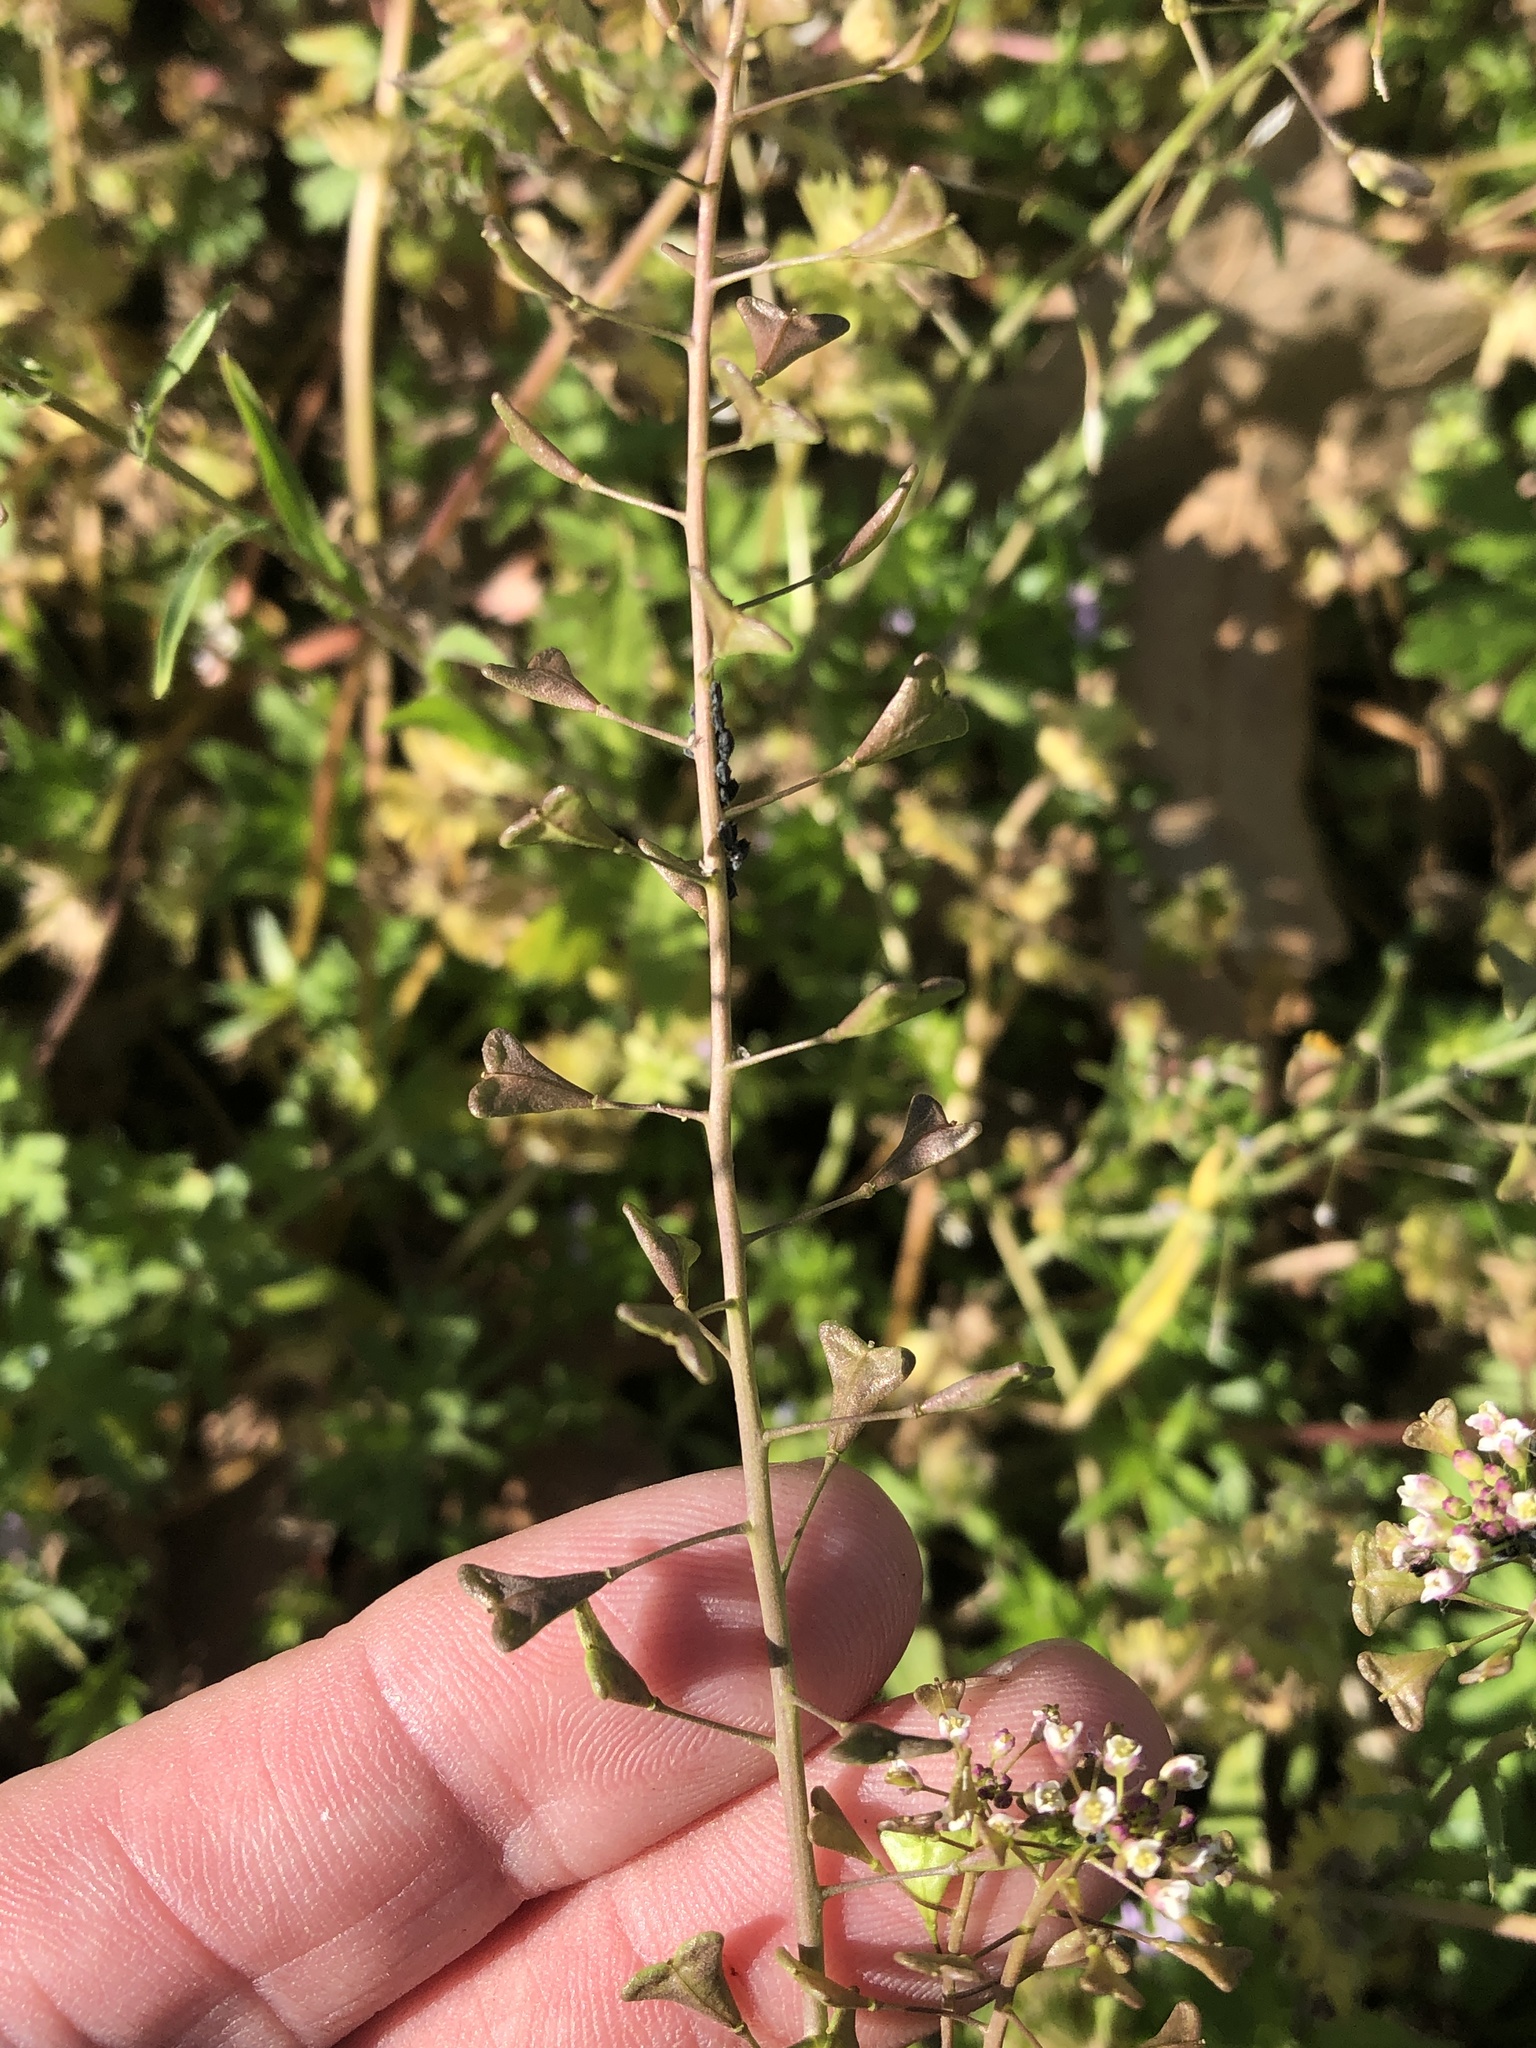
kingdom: Plantae
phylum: Tracheophyta
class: Magnoliopsida
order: Brassicales
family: Brassicaceae
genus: Capsella
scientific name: Capsella bursa-pastoris
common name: Shepherd's purse
